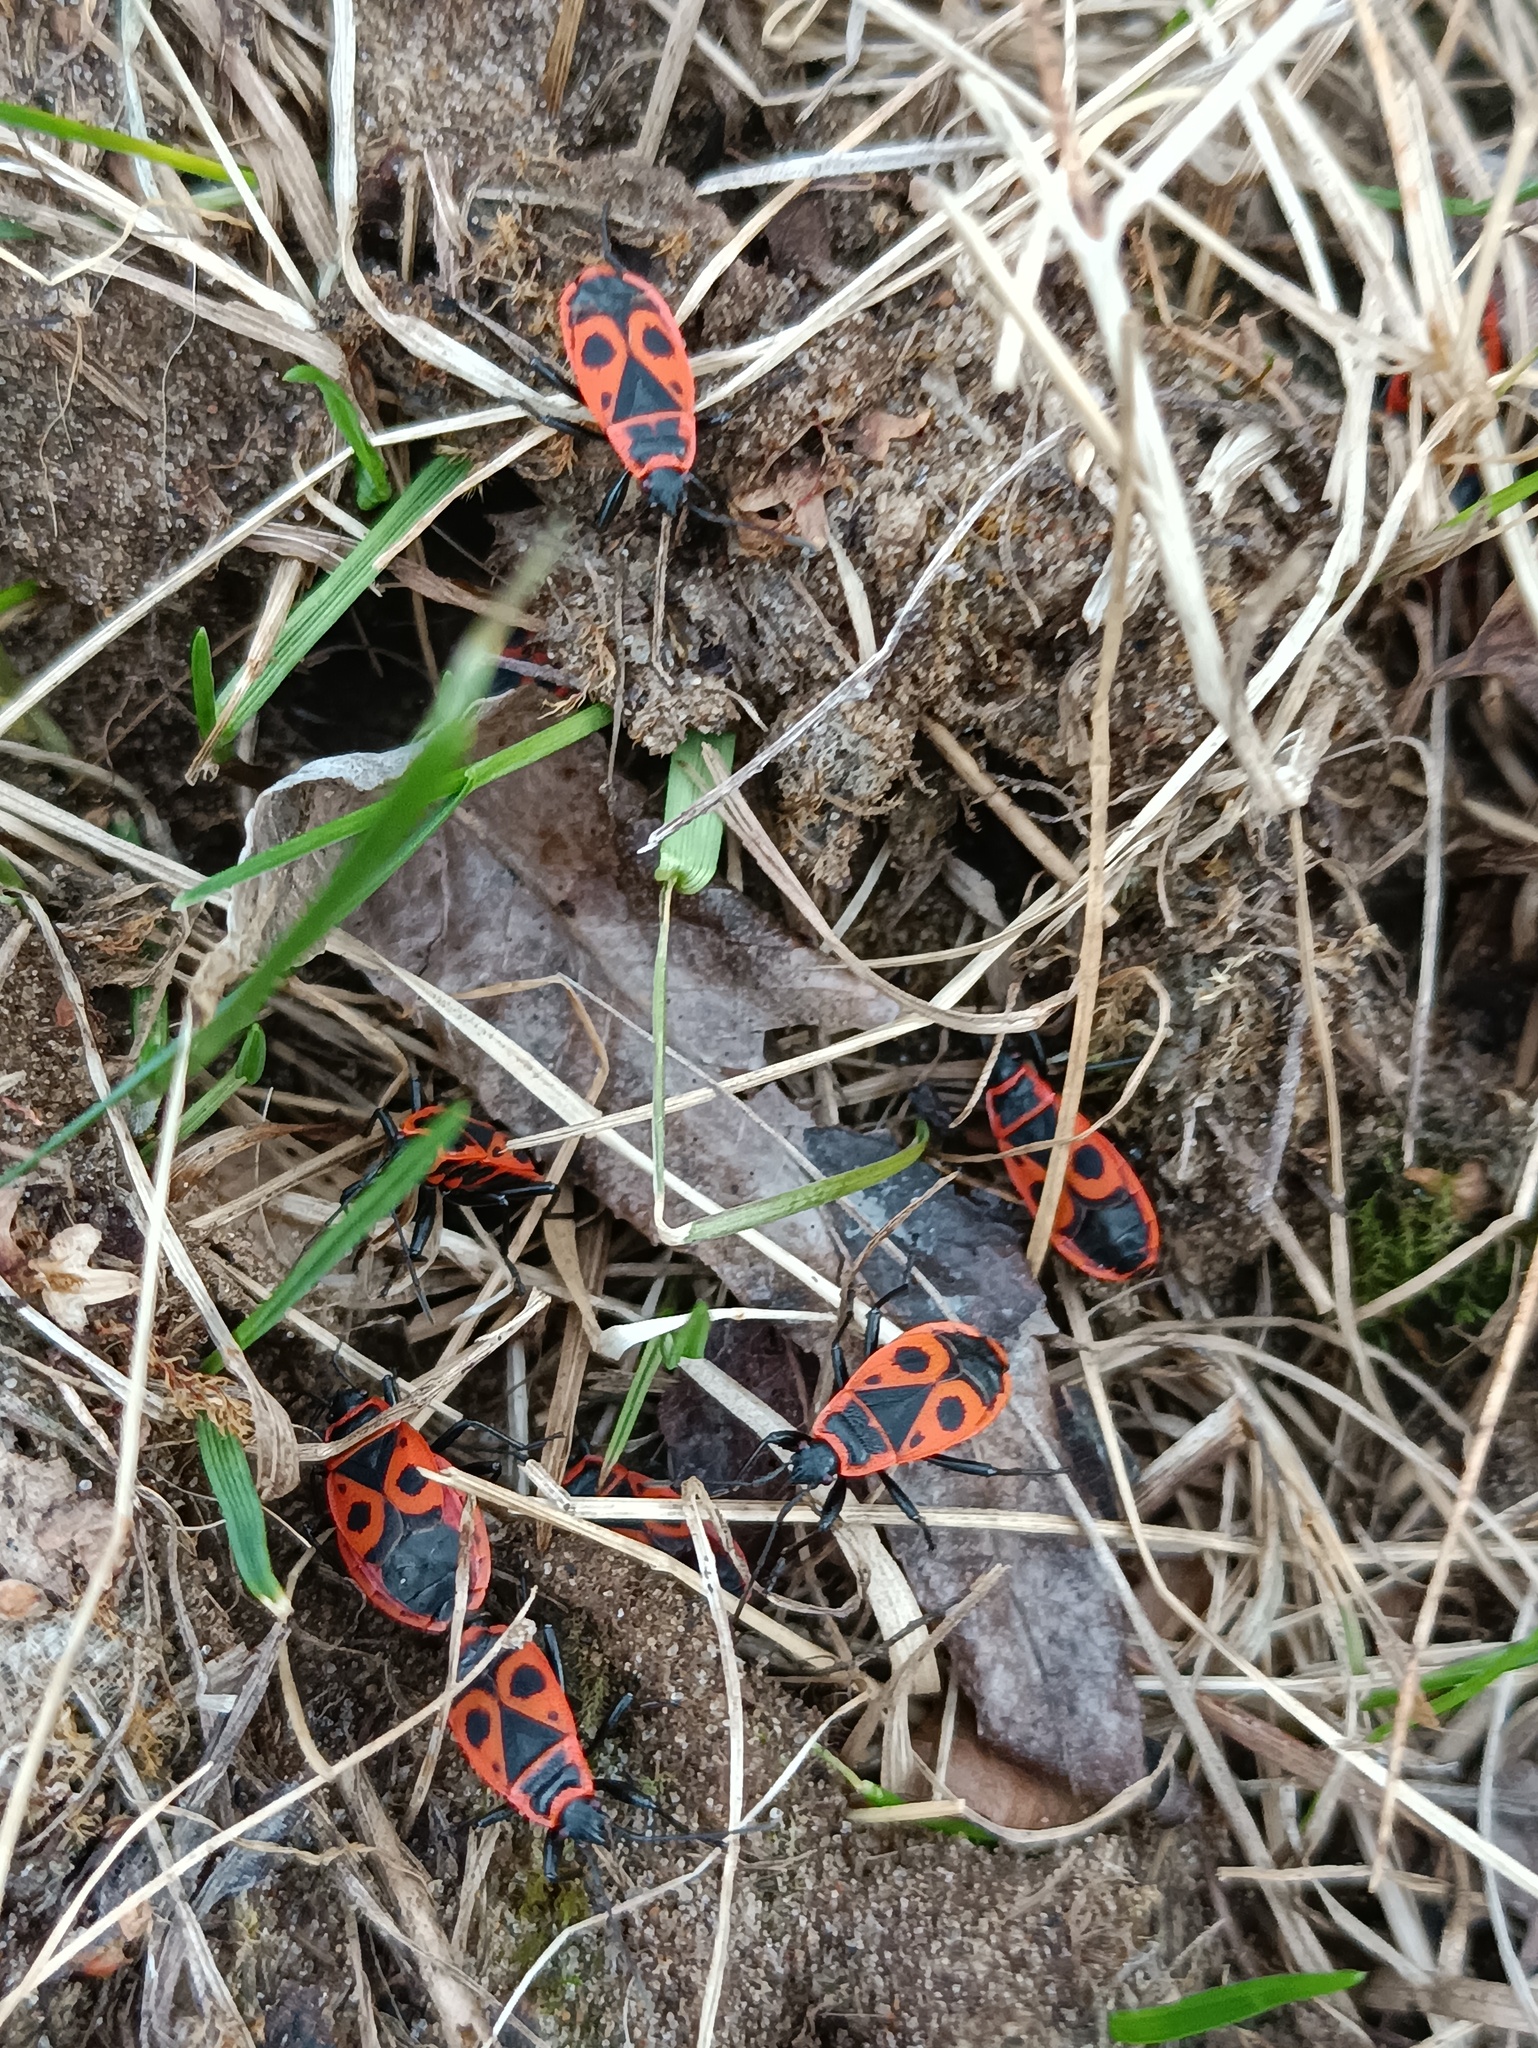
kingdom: Animalia
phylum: Arthropoda
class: Insecta
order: Hemiptera
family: Pyrrhocoridae
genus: Pyrrhocoris
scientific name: Pyrrhocoris apterus
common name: Firebug
